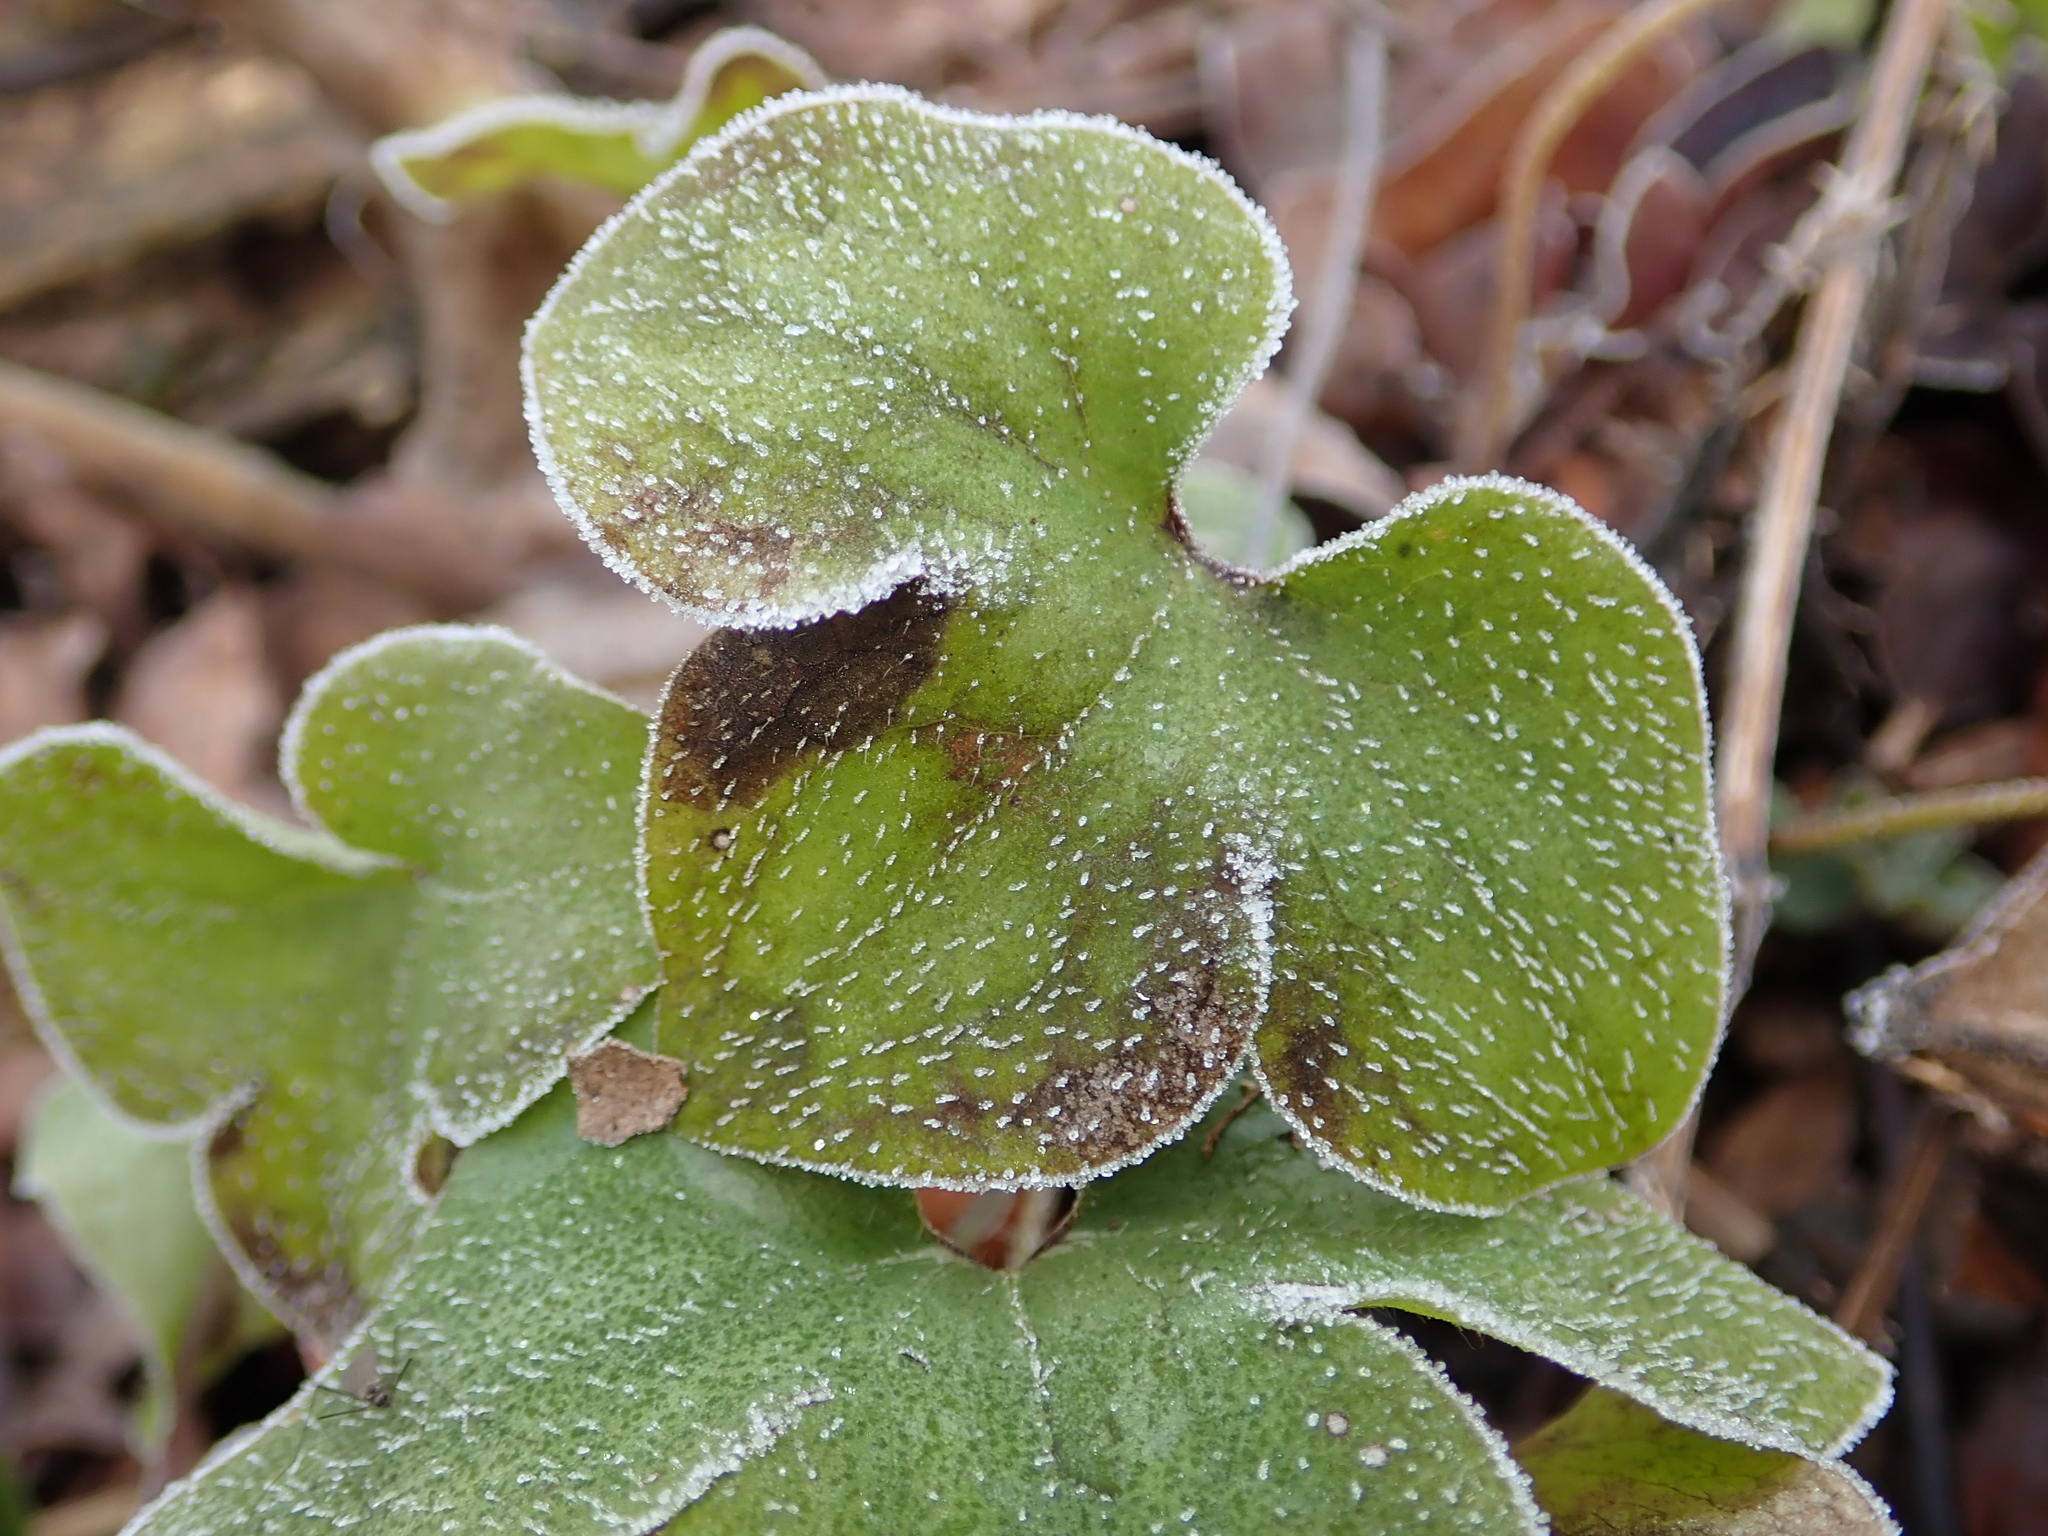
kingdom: Plantae
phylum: Tracheophyta
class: Magnoliopsida
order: Ranunculales
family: Ranunculaceae
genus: Hepatica
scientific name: Hepatica nobilis
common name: Liverleaf
